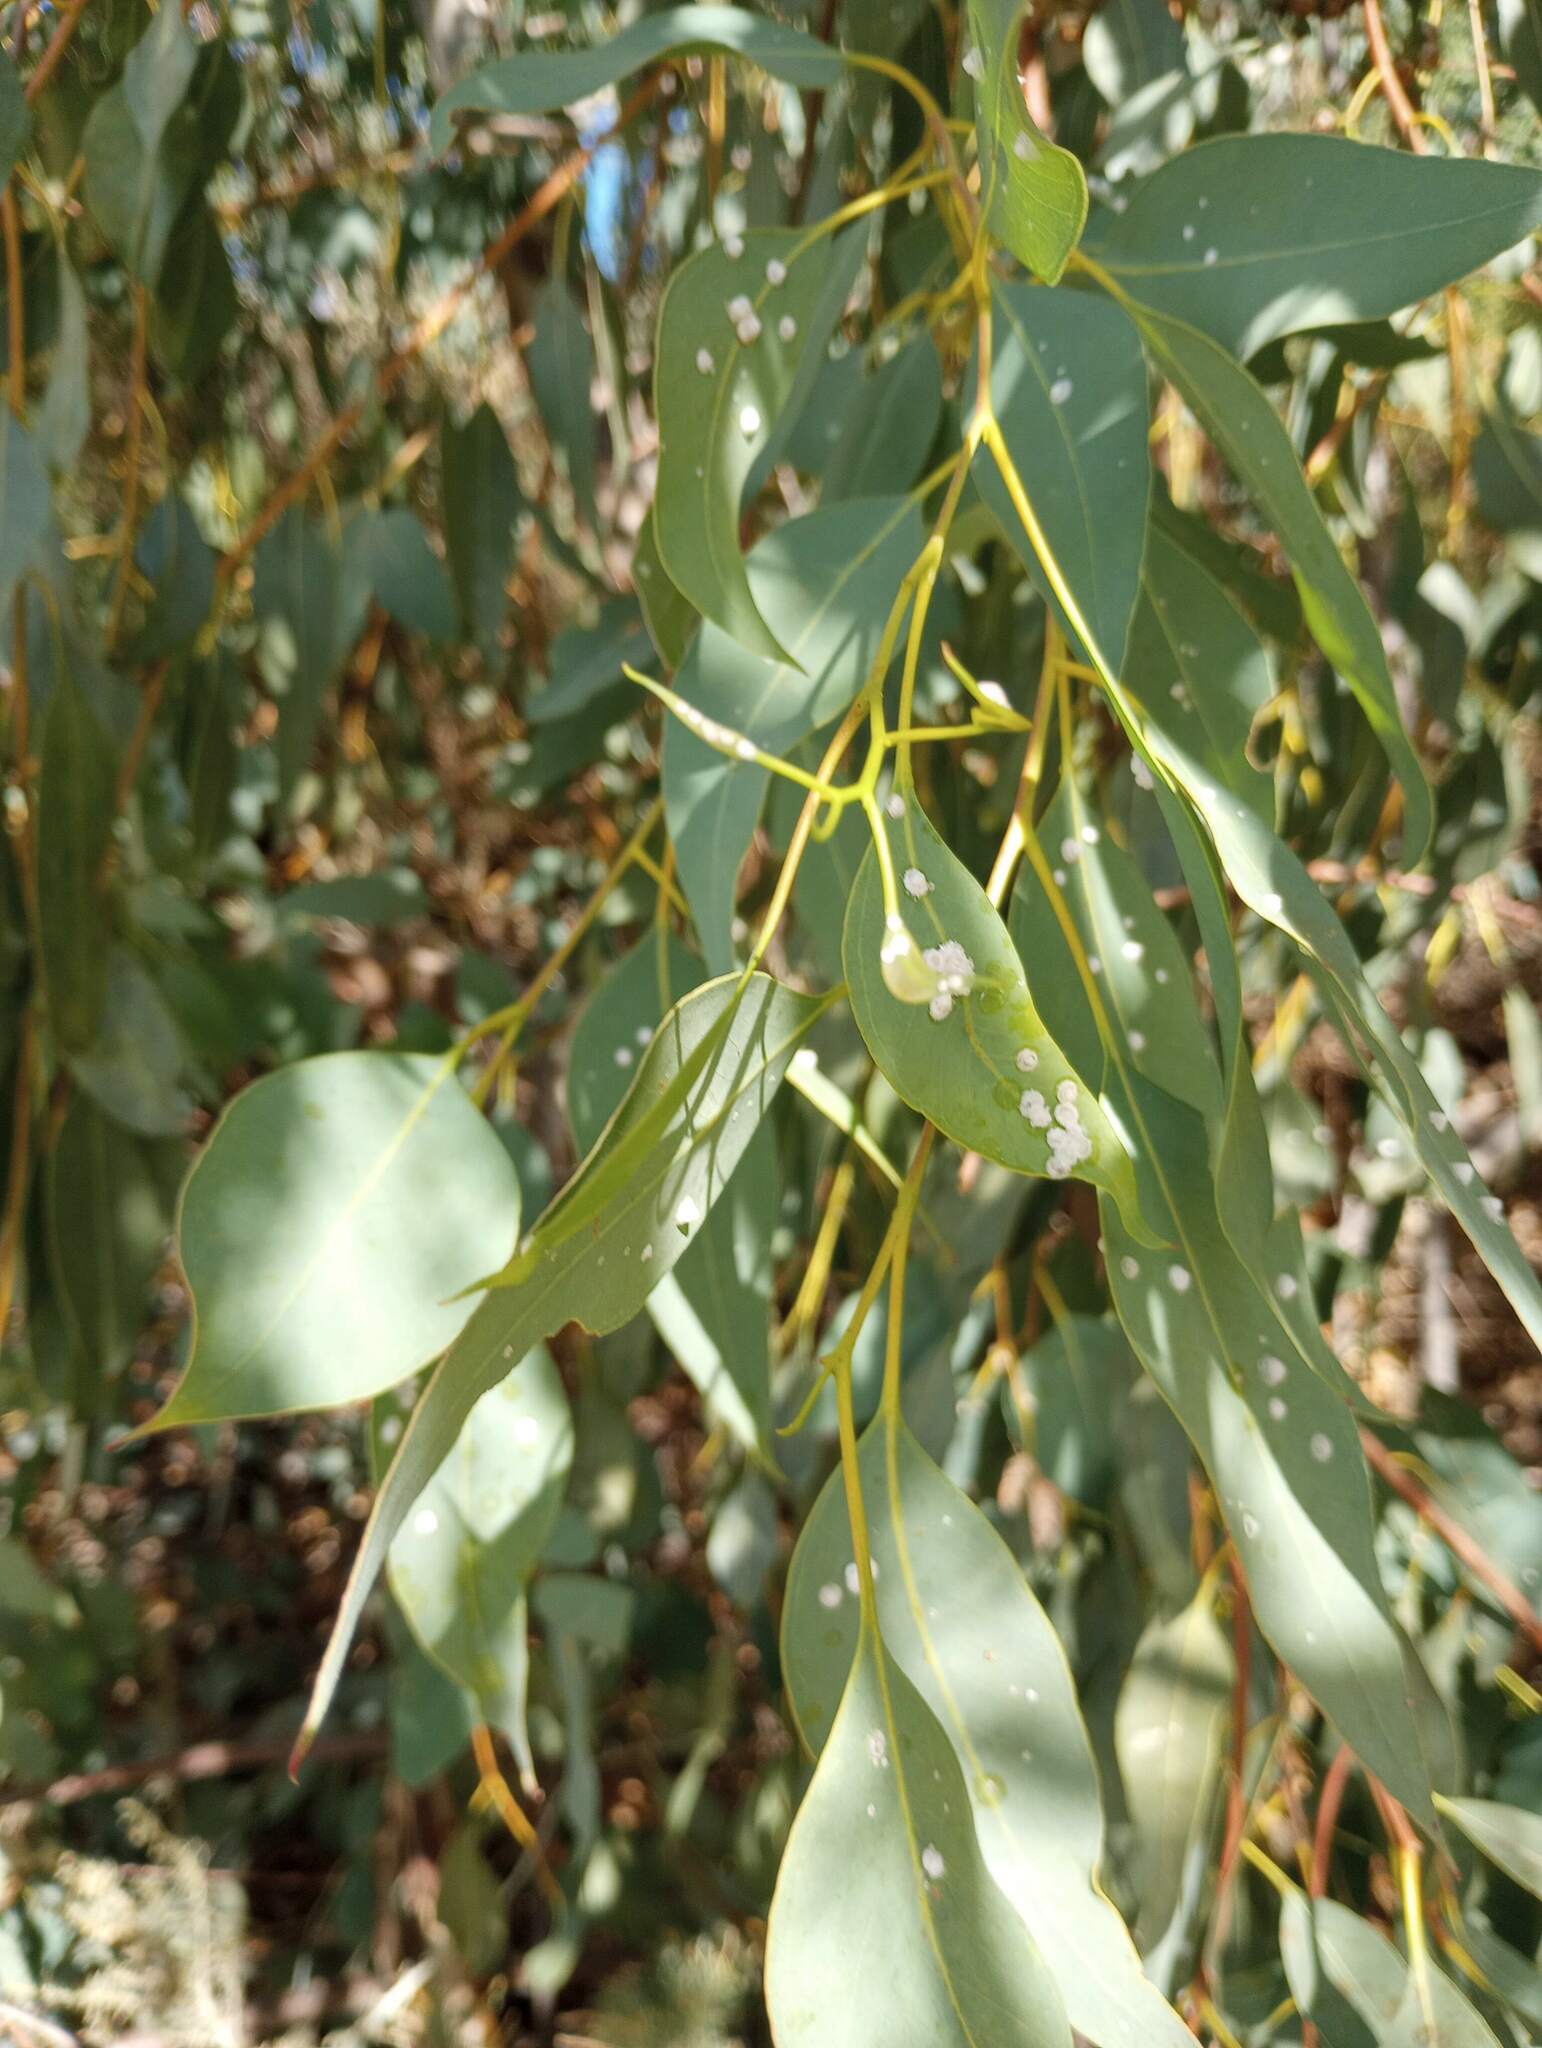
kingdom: Animalia
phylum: Arthropoda
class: Insecta
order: Hemiptera
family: Aphalaridae
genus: Glycaspis
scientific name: Glycaspis brimblecombei
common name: Red gum lerp psyllid
